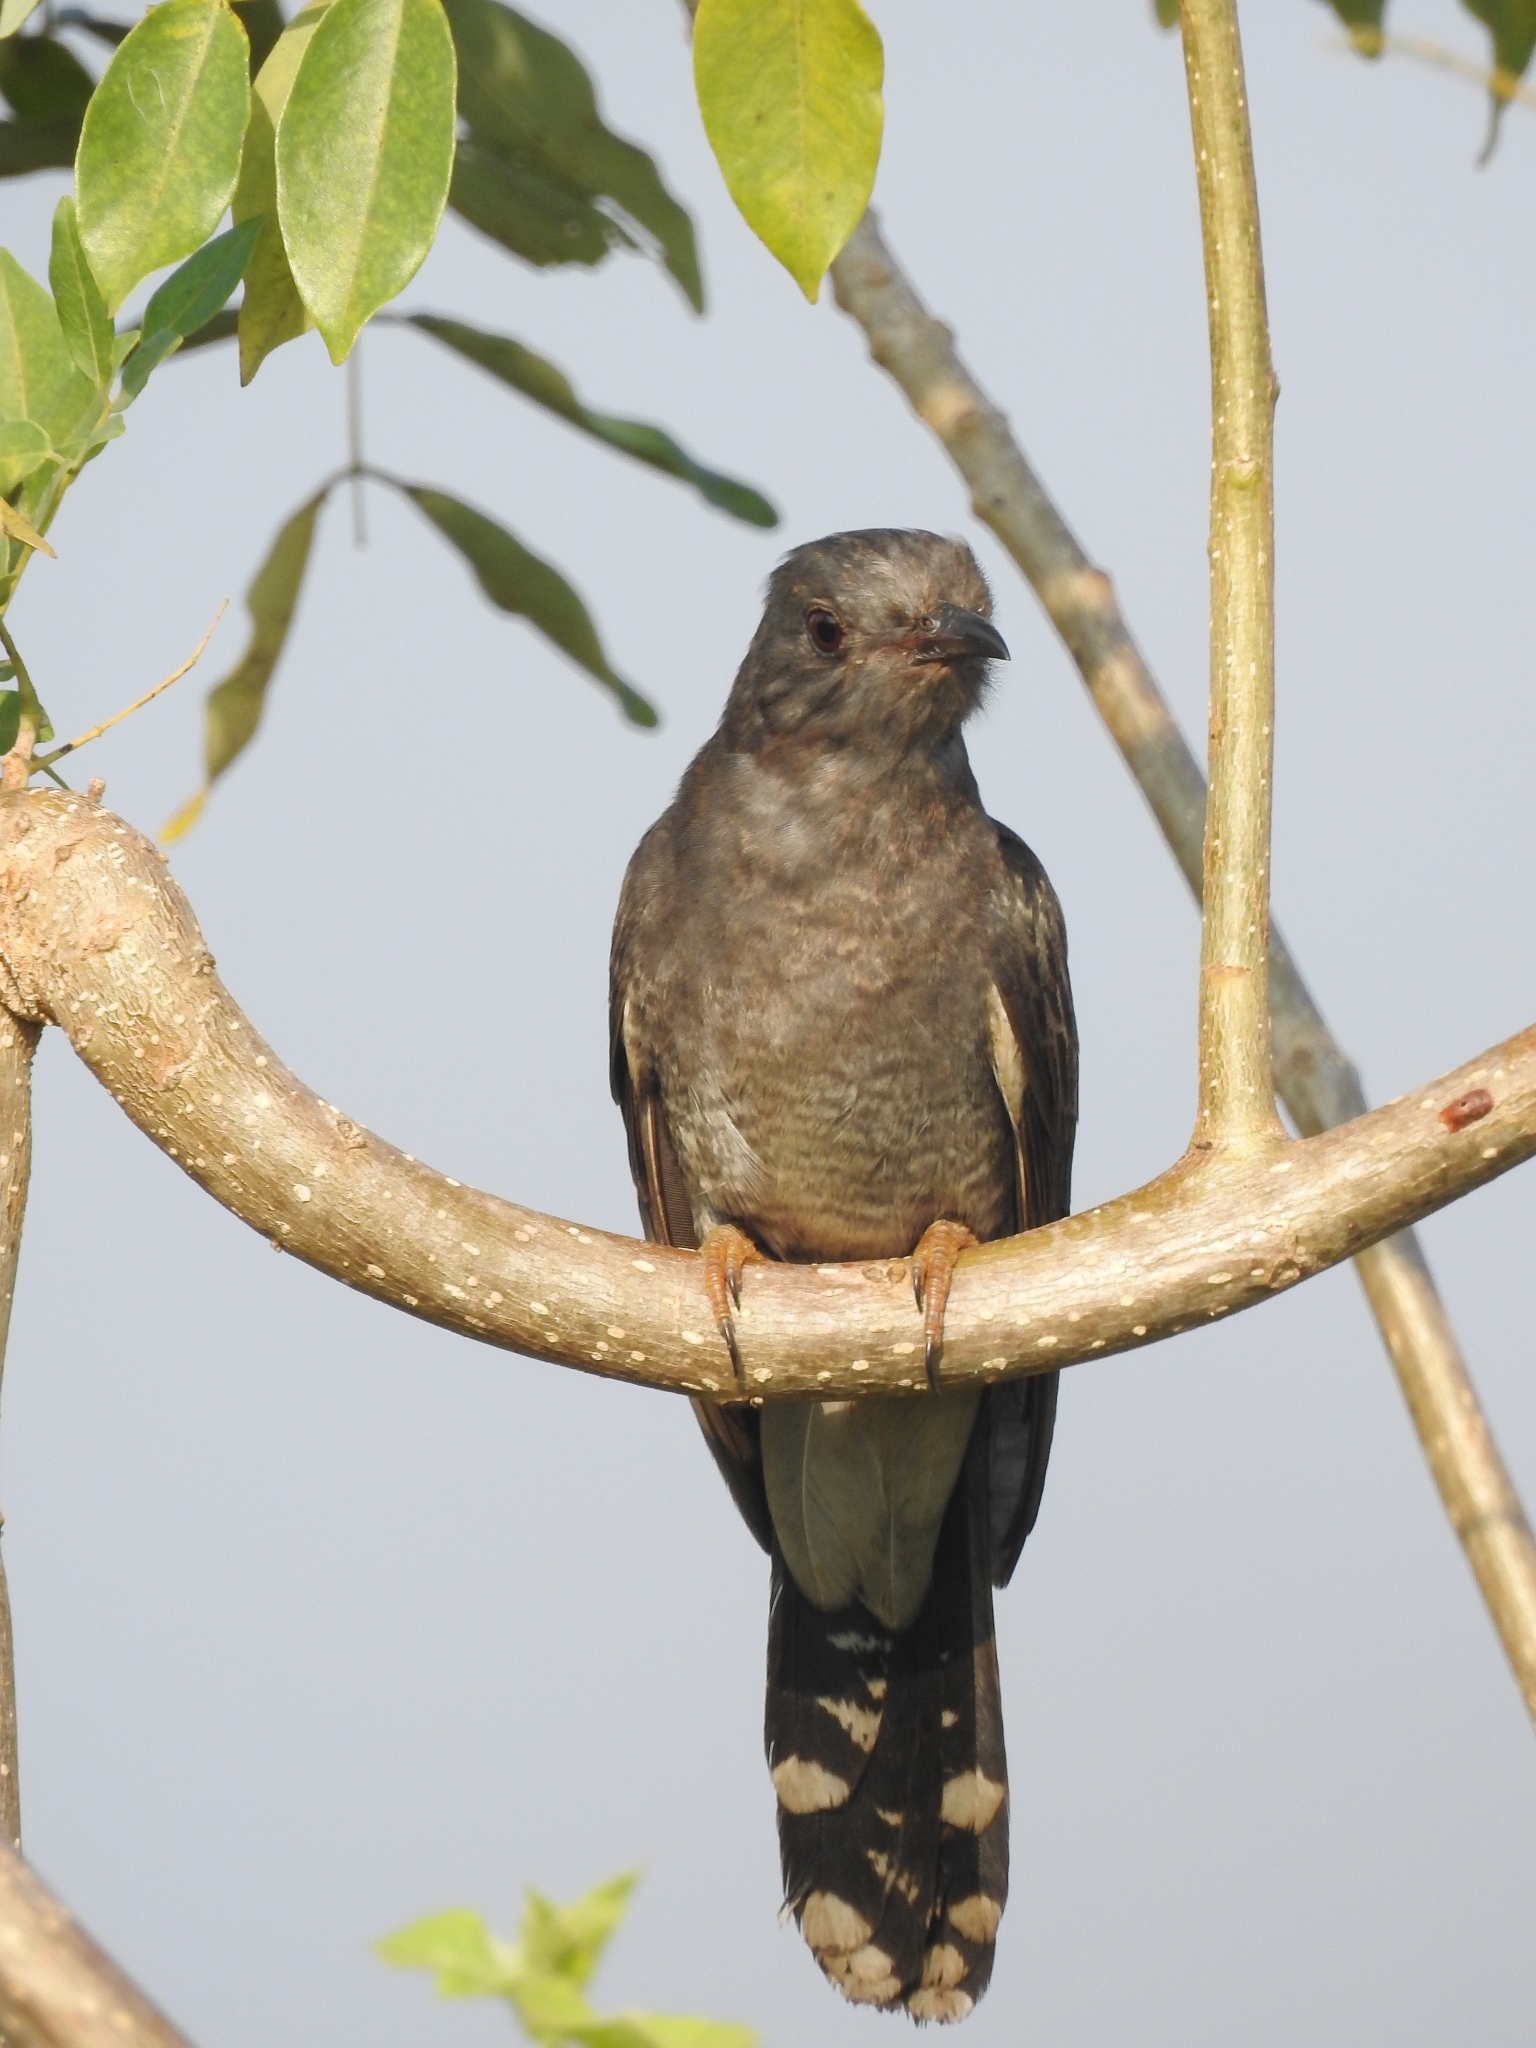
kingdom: Animalia
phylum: Chordata
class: Aves
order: Cuculiformes
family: Cuculidae
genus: Cacomantis
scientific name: Cacomantis passerinus
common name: Grey-bellied cuckoo
